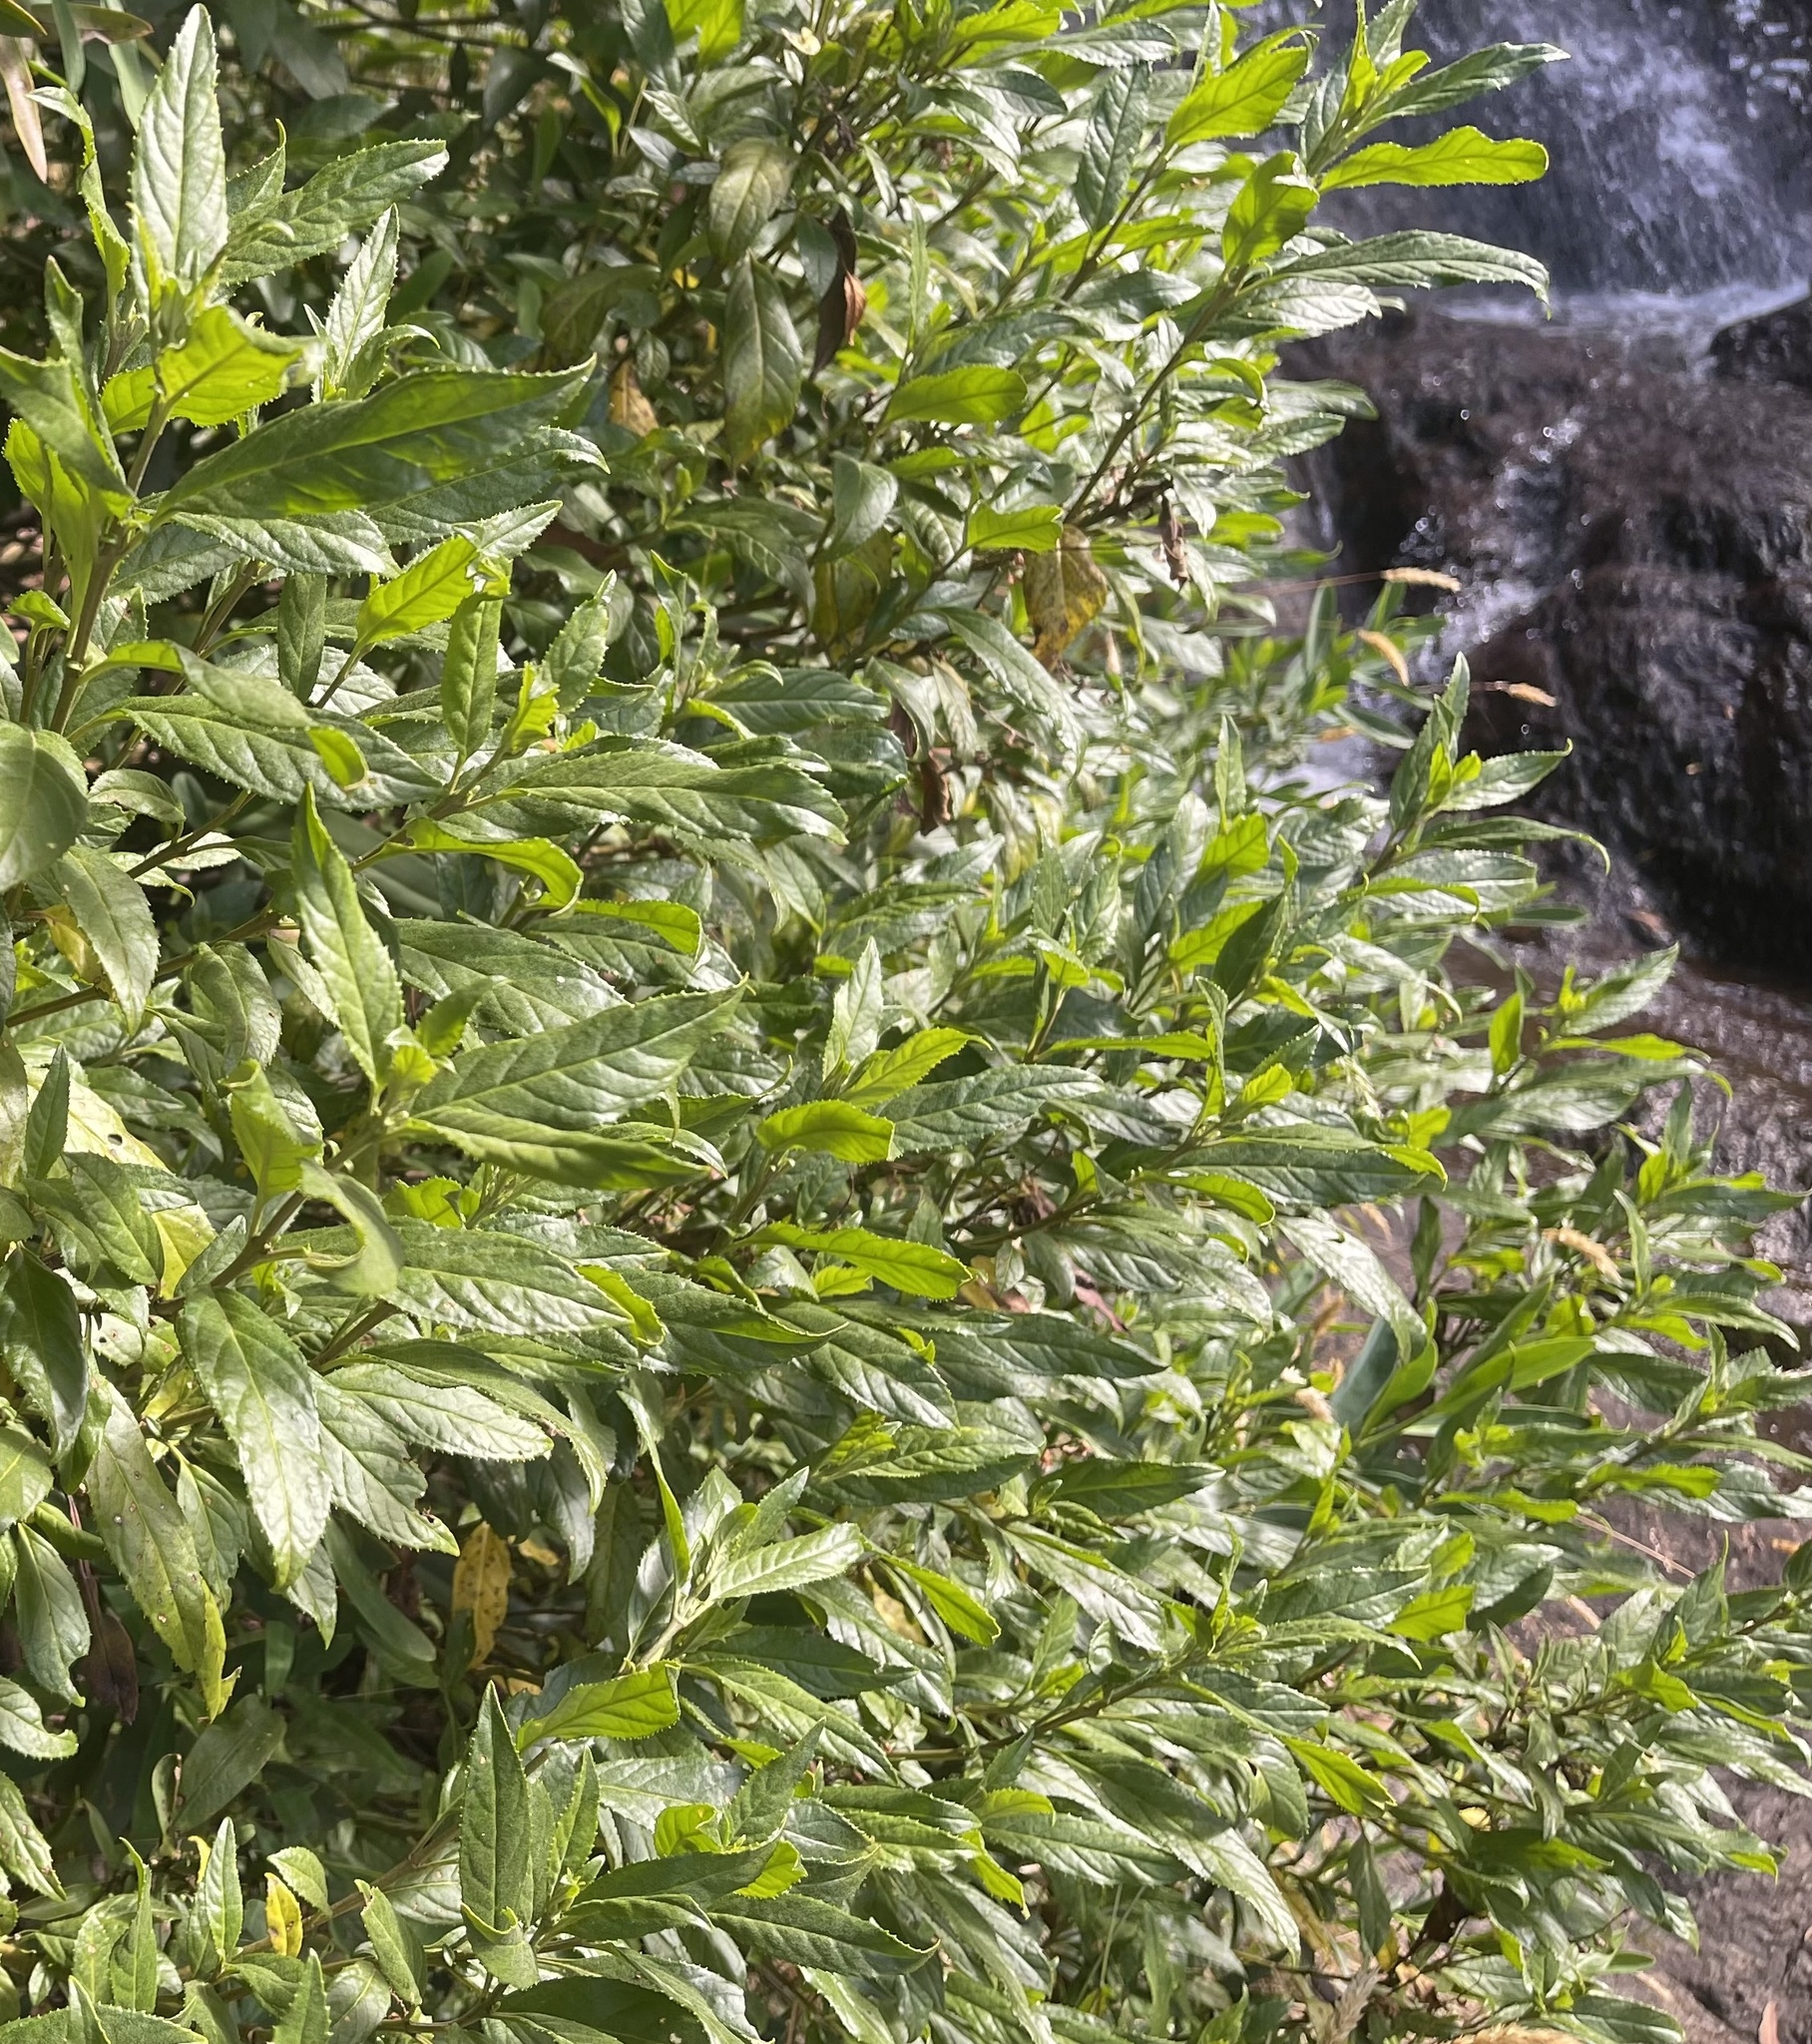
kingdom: Plantae
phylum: Tracheophyta
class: Magnoliopsida
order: Lamiales
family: Lamiaceae
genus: Prostanthera
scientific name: Prostanthera lasianthos
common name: Mountain-lilac
